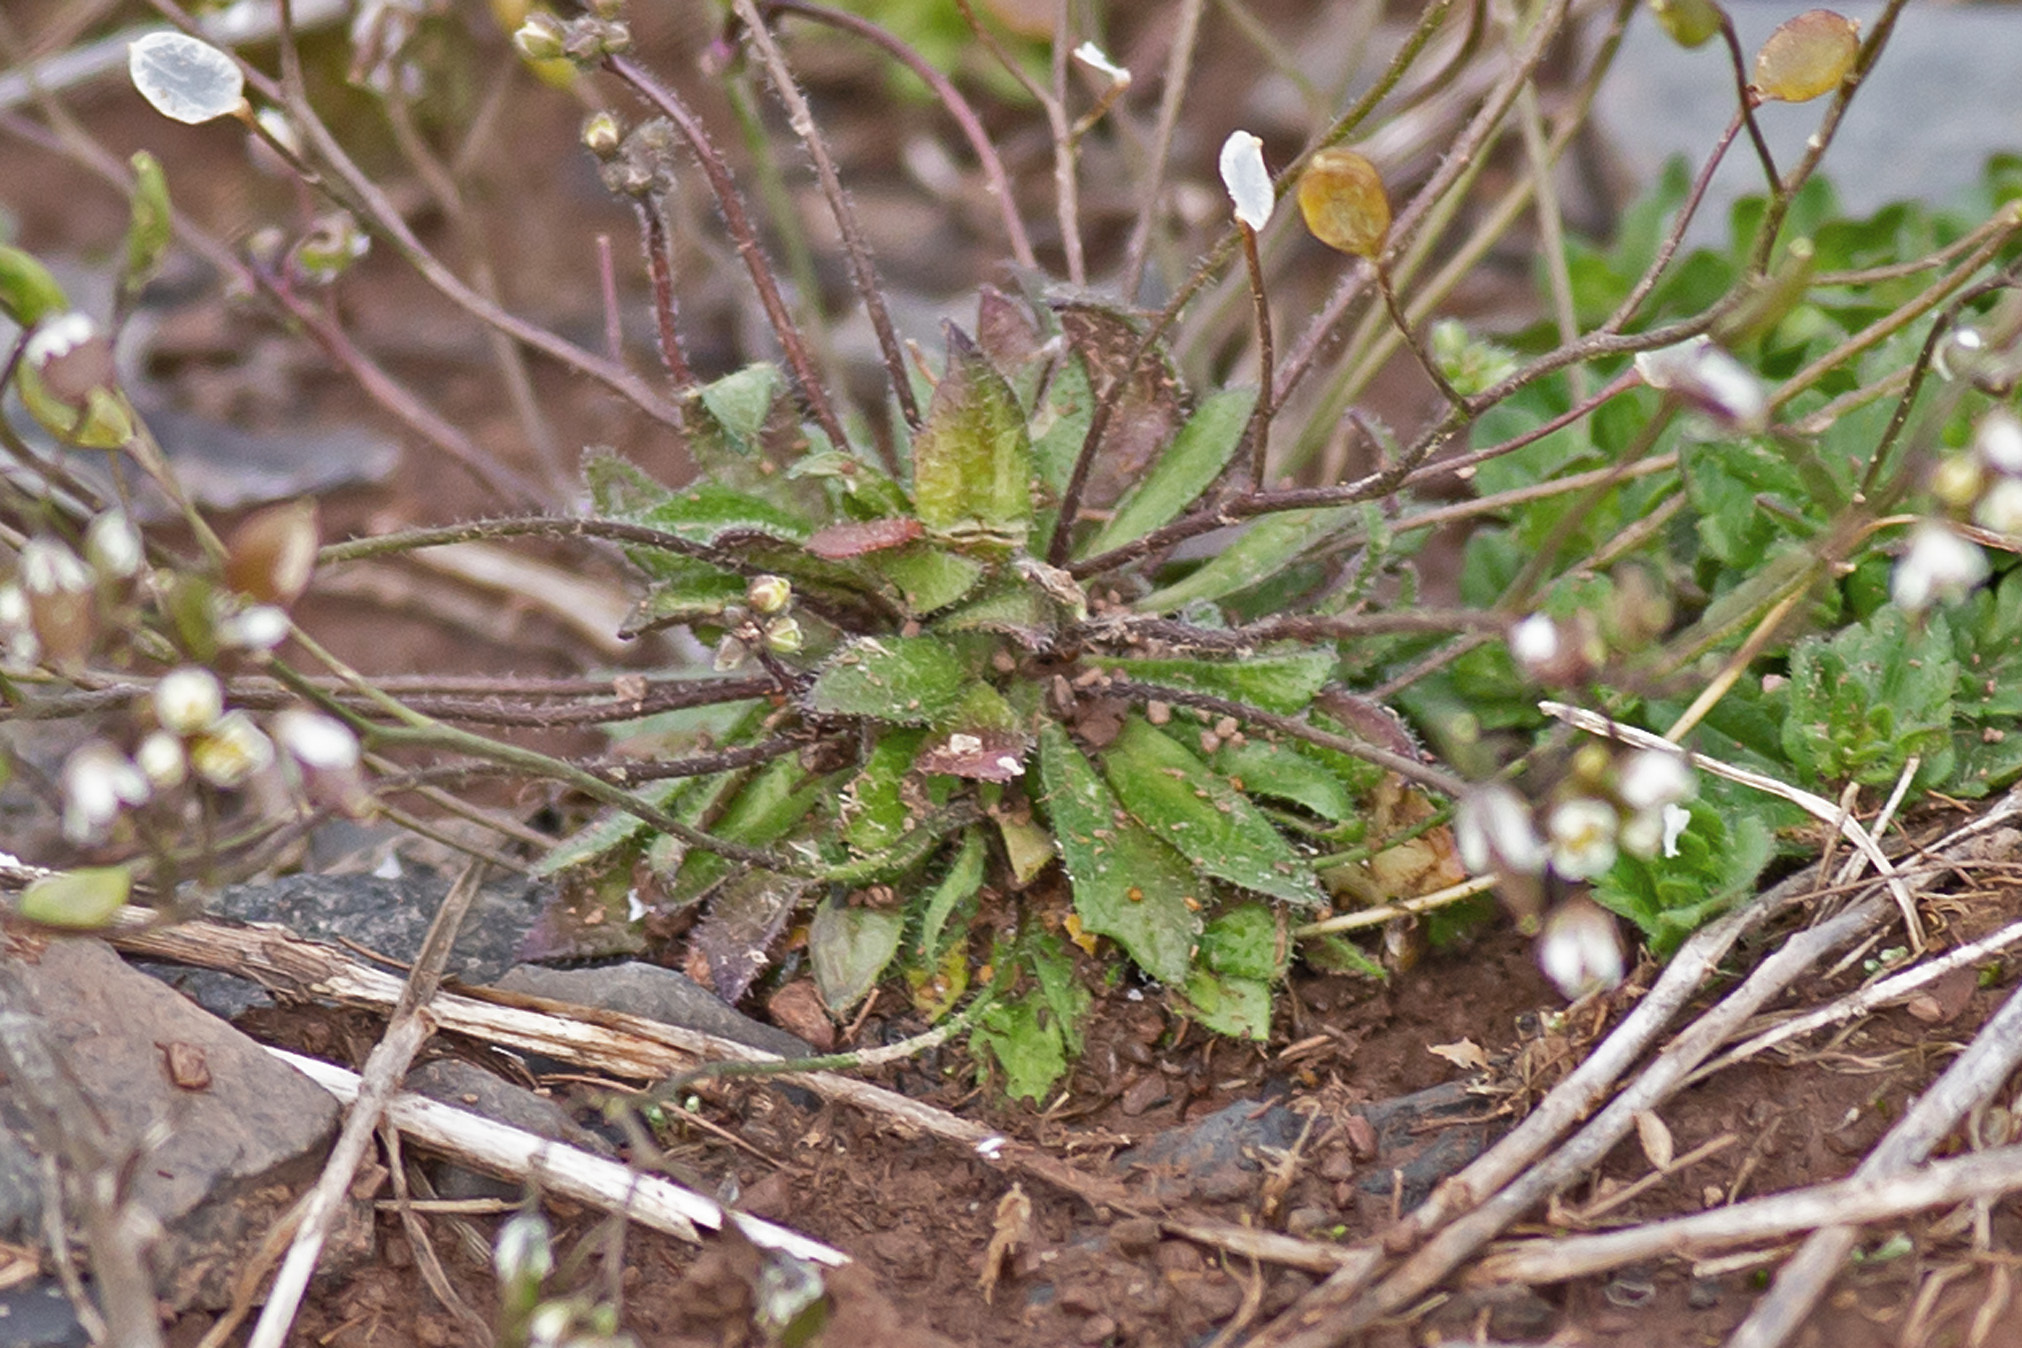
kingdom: Plantae
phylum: Tracheophyta
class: Magnoliopsida
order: Brassicales
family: Brassicaceae
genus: Draba
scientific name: Draba verna
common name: Spring draba
